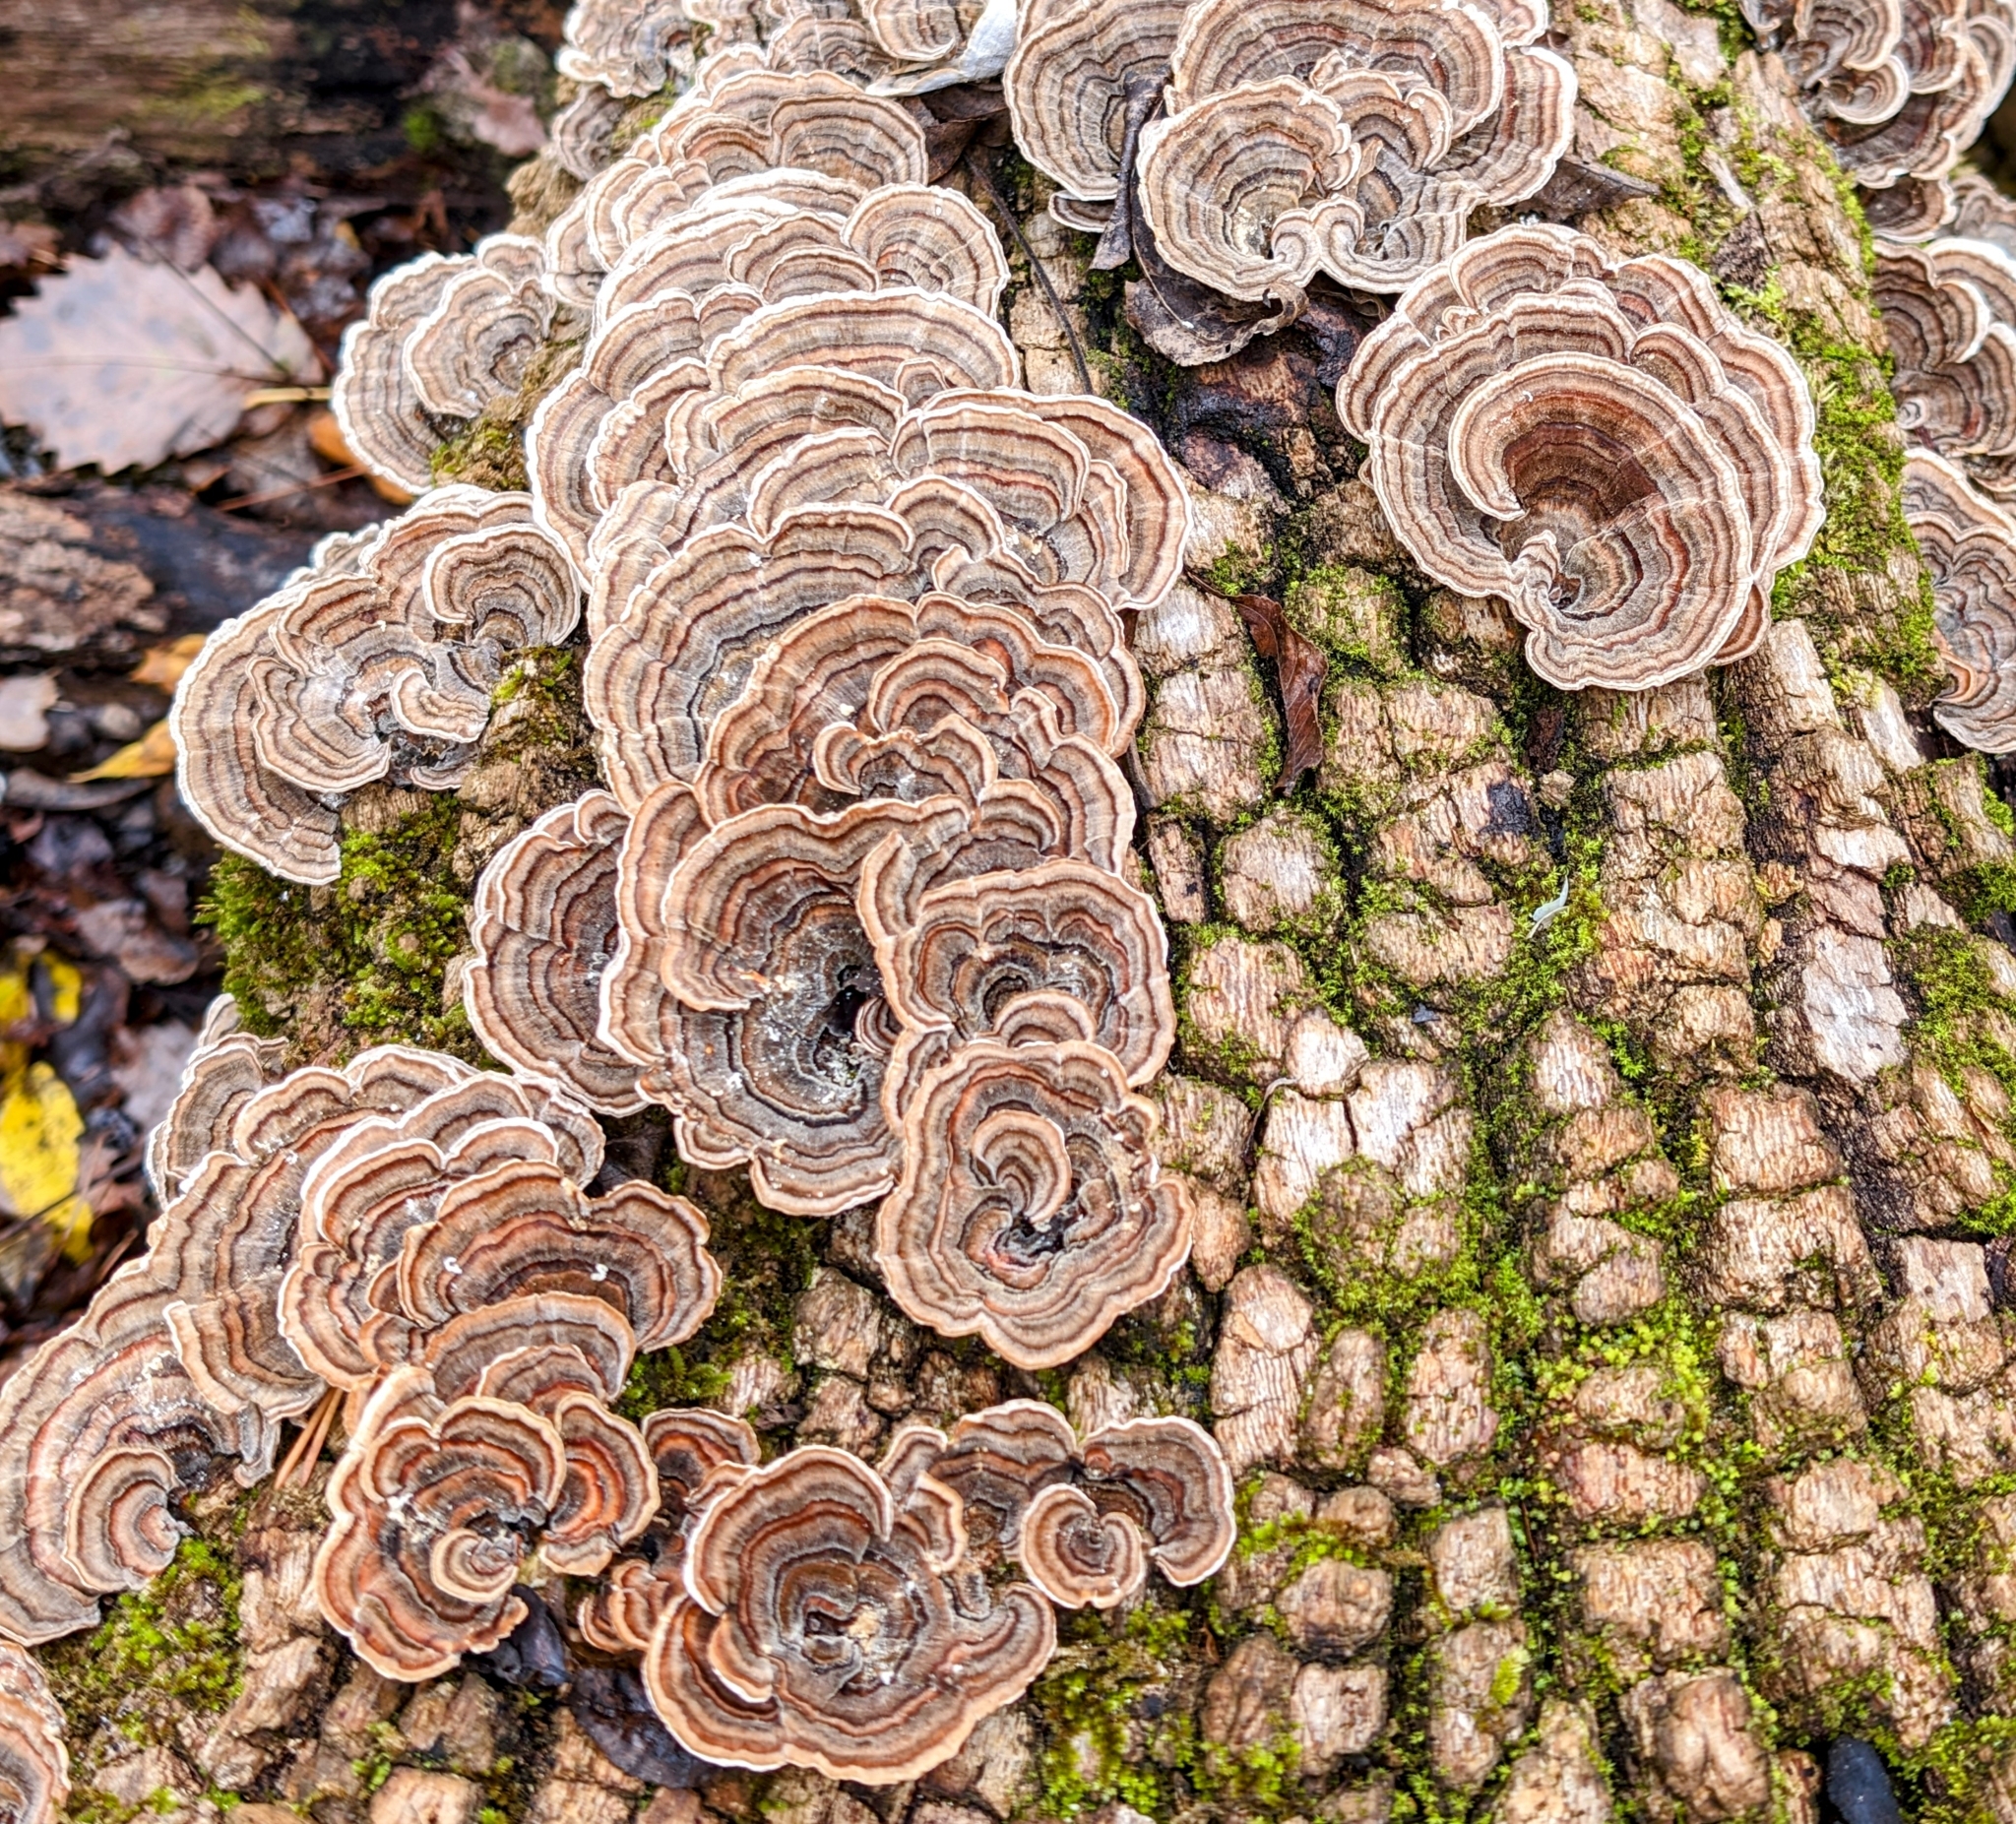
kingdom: Fungi
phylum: Basidiomycota
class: Agaricomycetes
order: Polyporales
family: Polyporaceae
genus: Trametes
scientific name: Trametes versicolor
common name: Turkeytail
